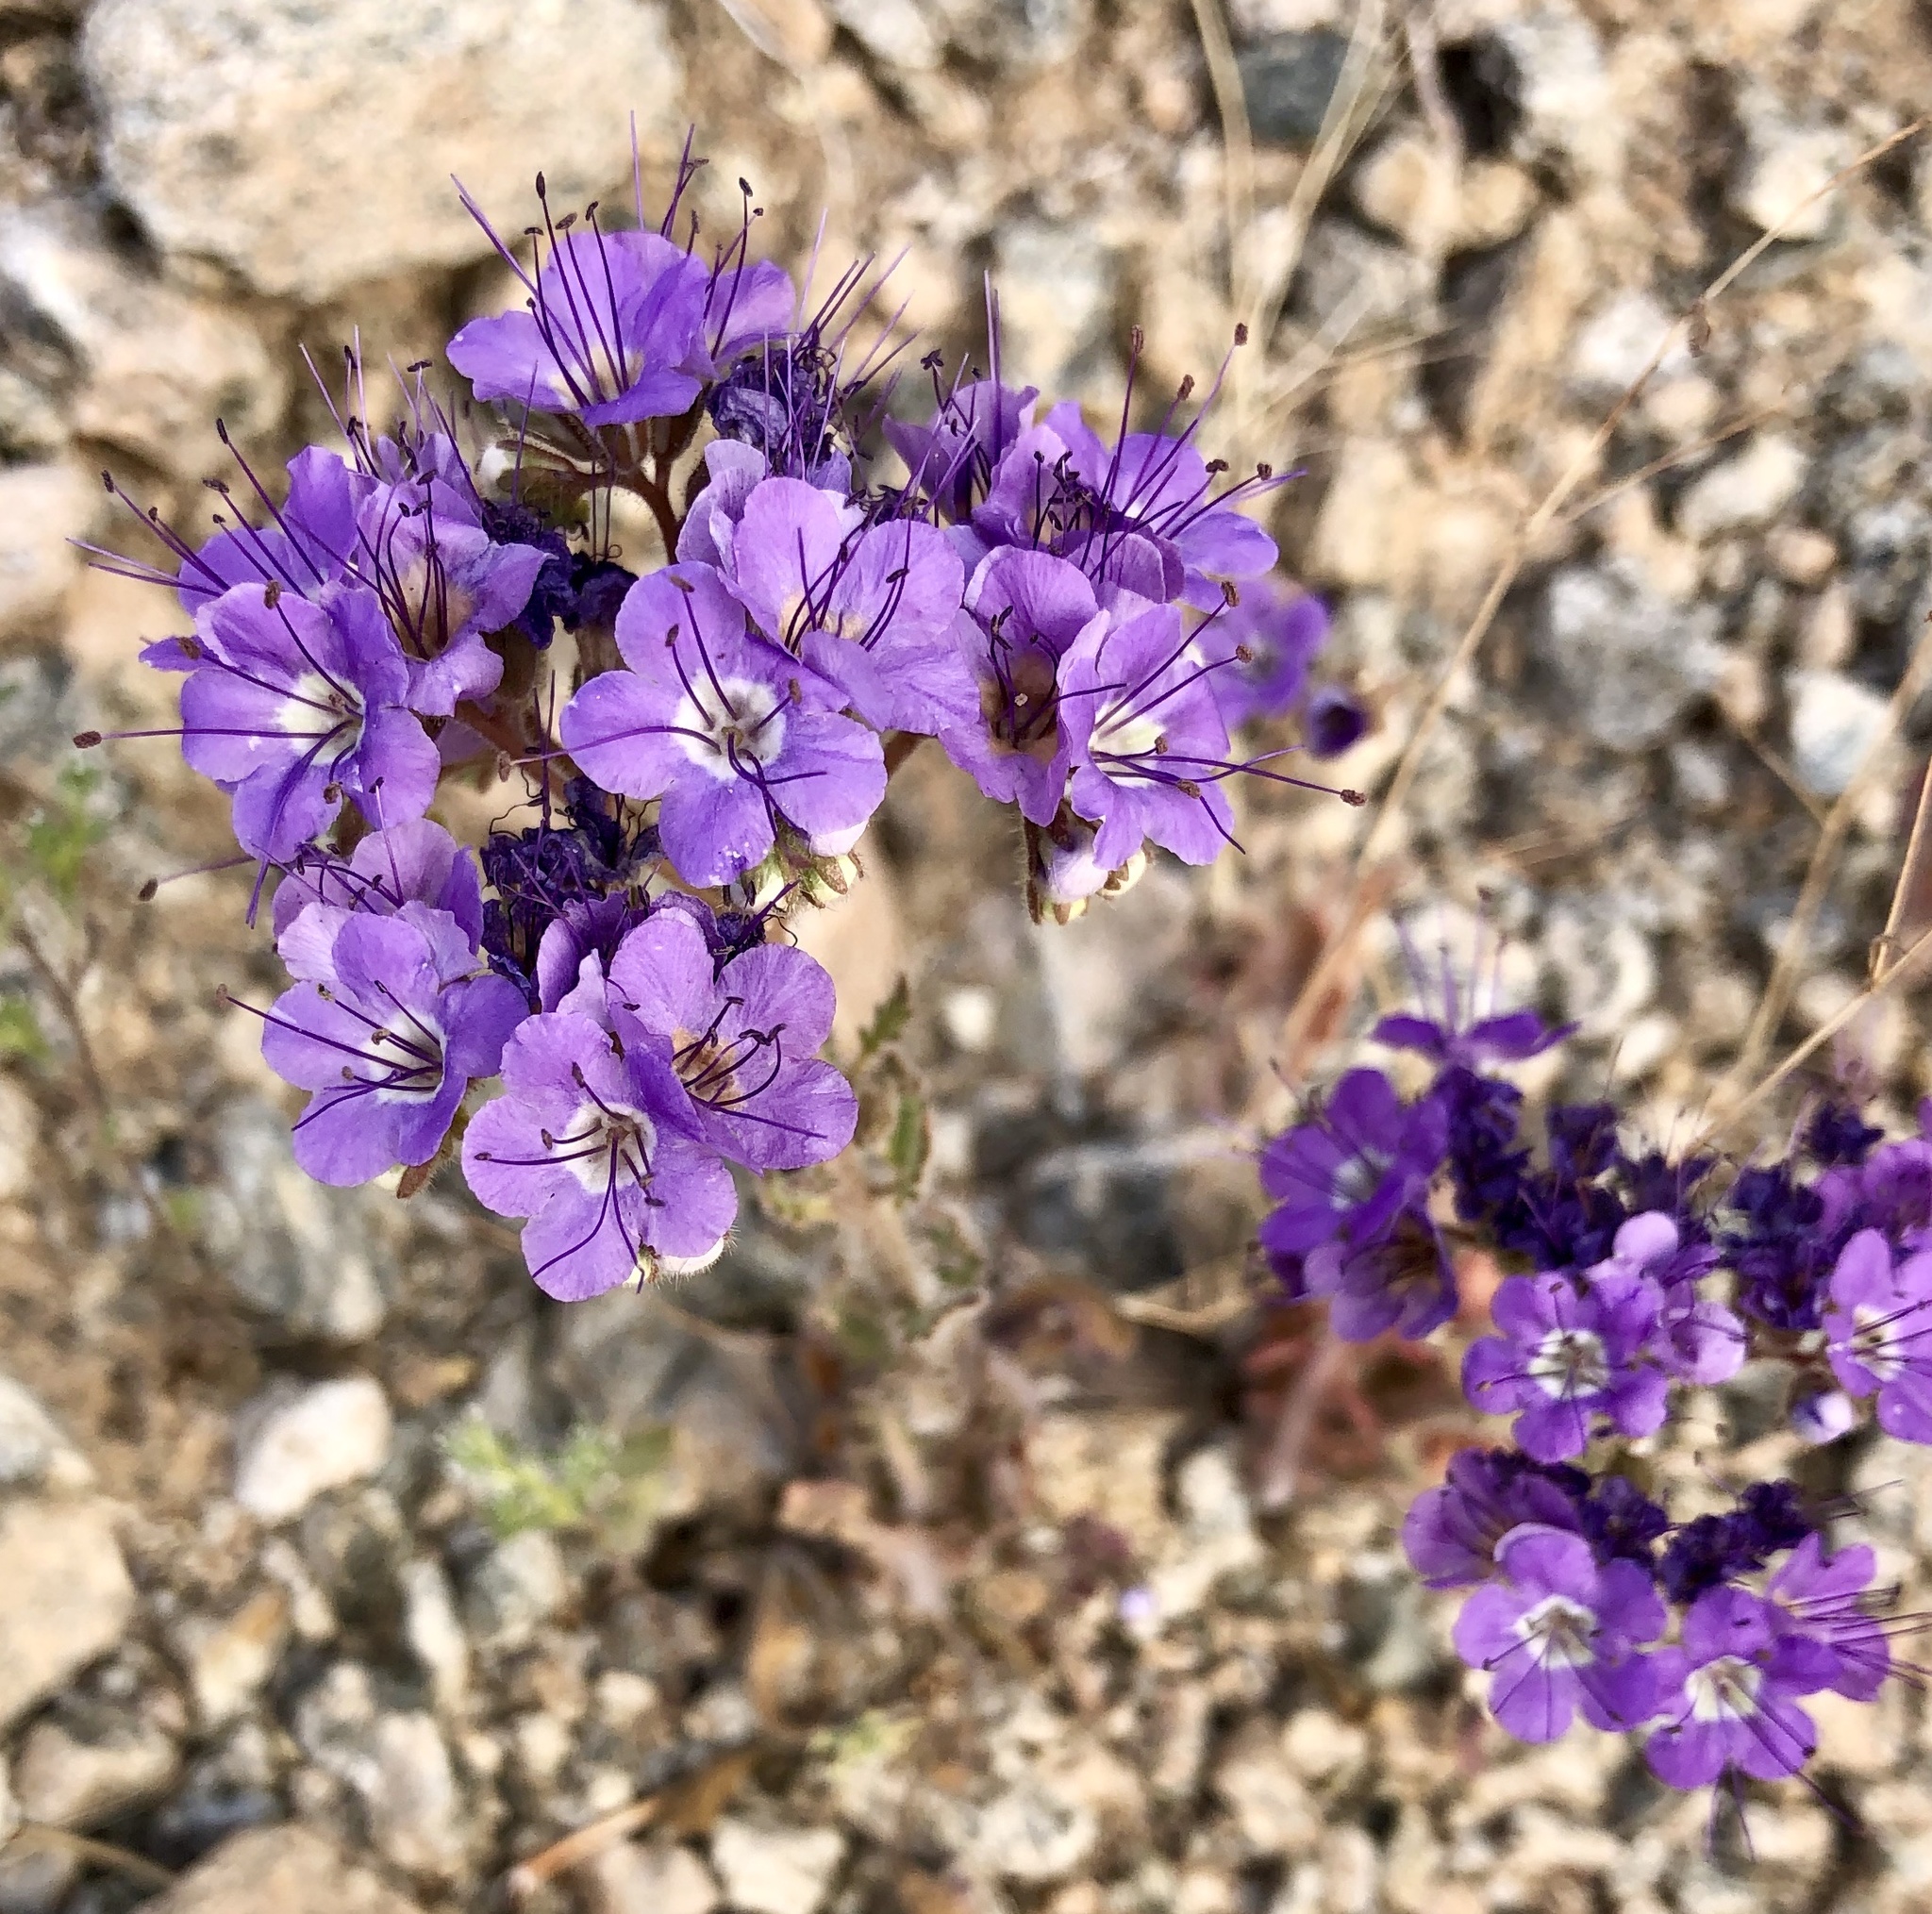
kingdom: Plantae
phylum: Tracheophyta
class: Magnoliopsida
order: Boraginales
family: Hydrophyllaceae
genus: Phacelia
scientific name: Phacelia crenulata
